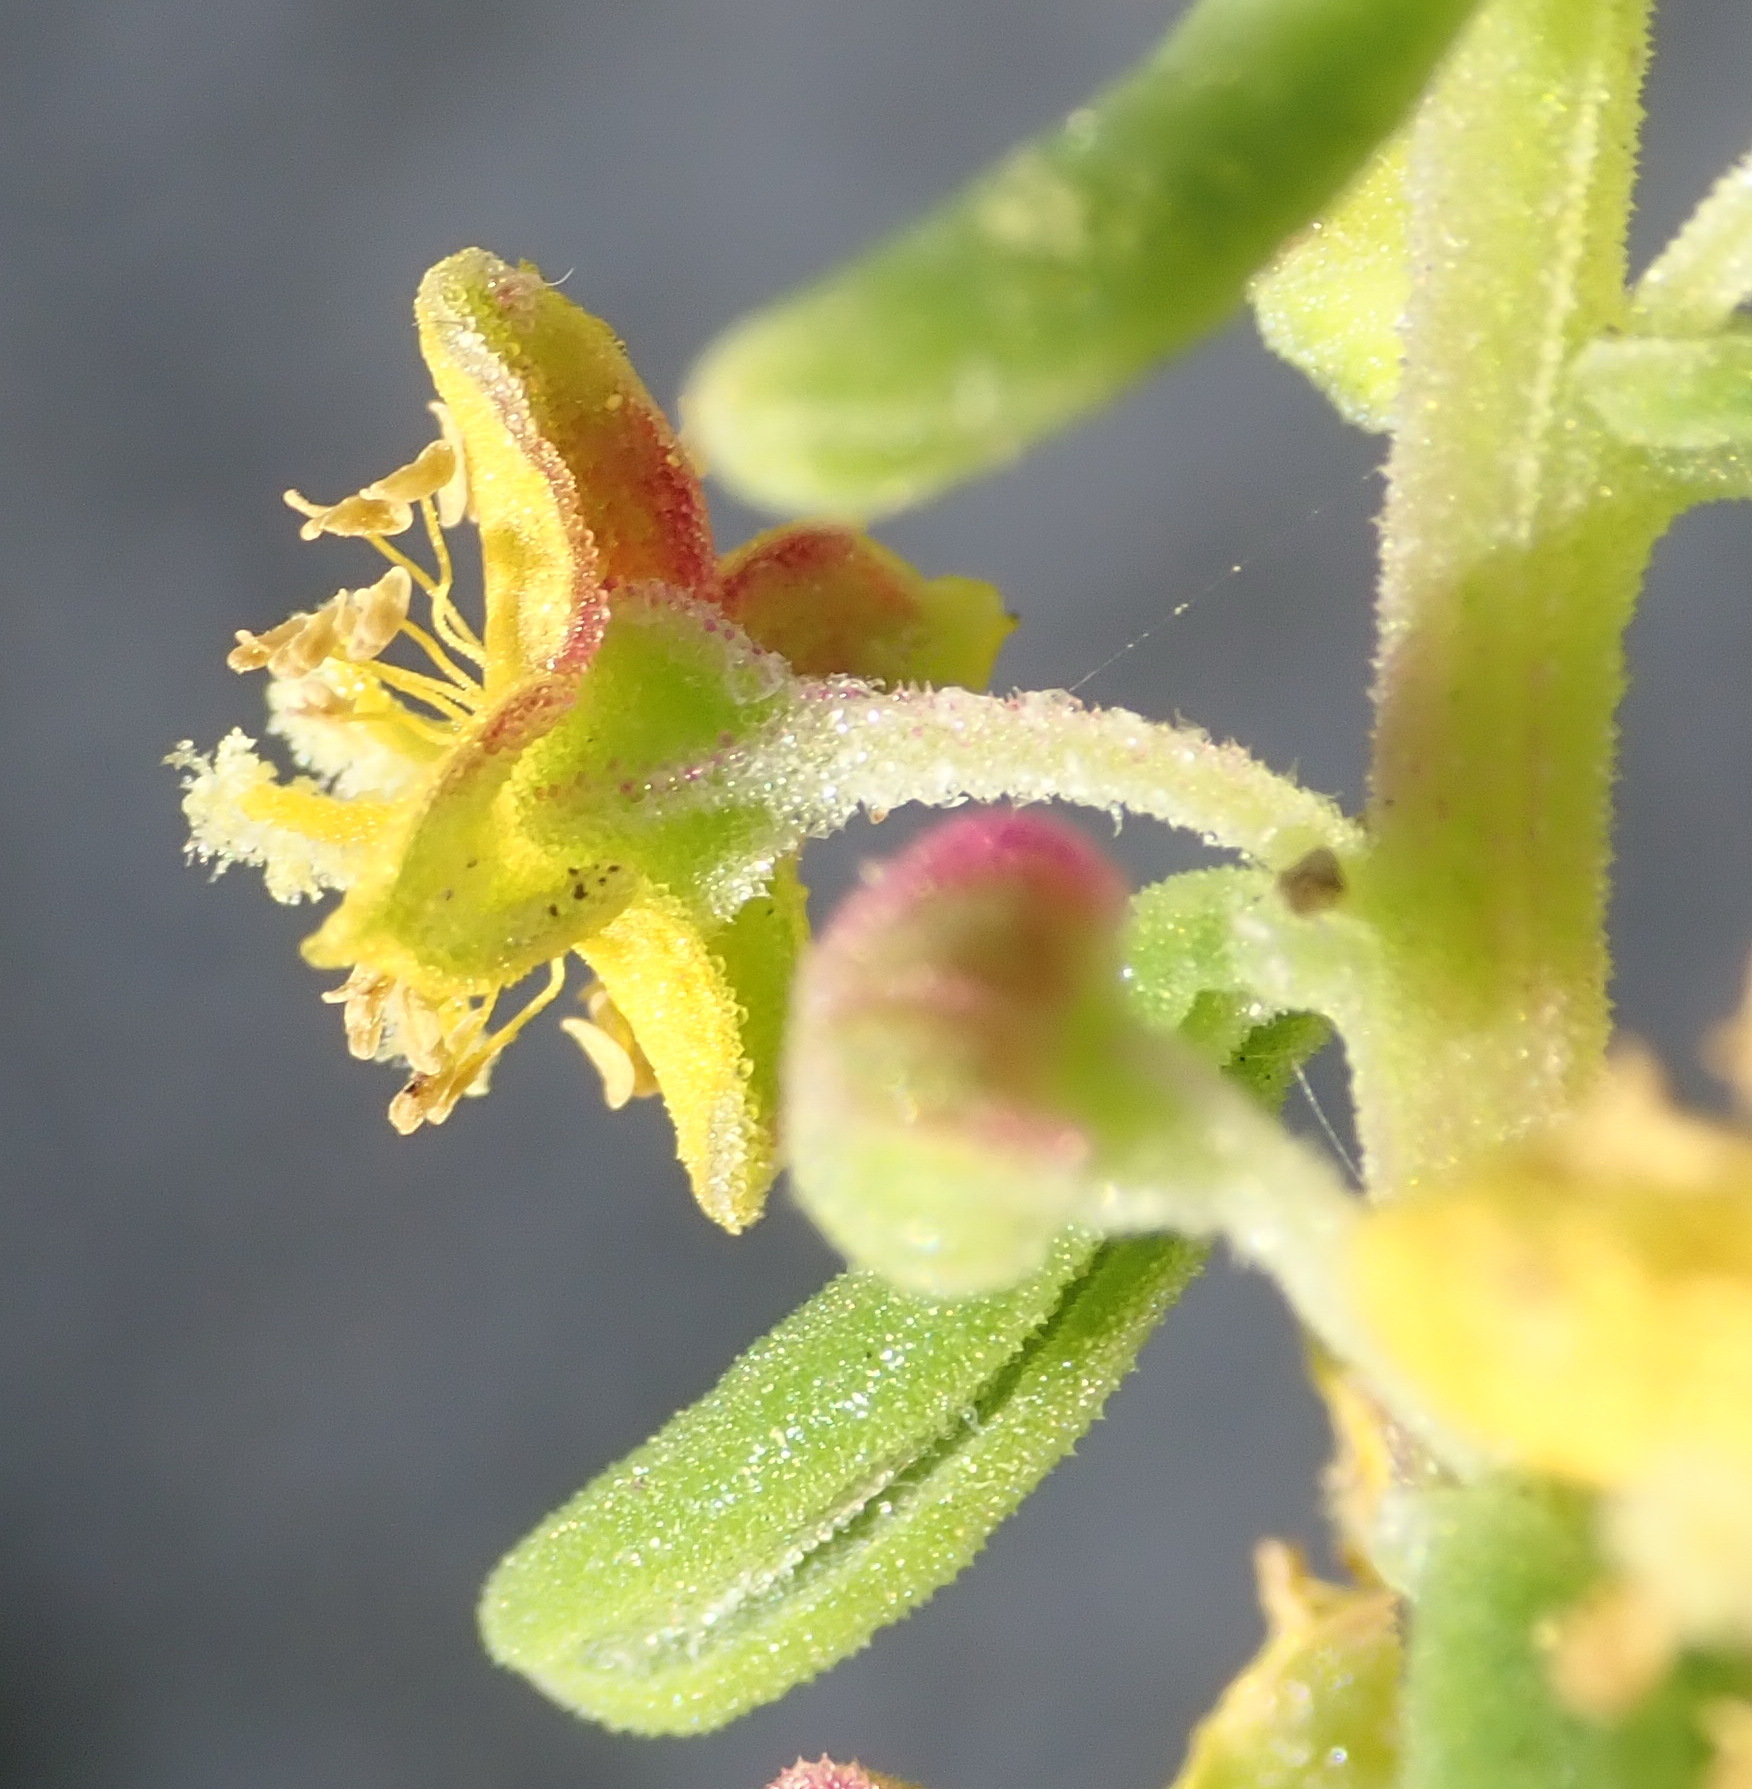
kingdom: Plantae
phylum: Tracheophyta
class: Magnoliopsida
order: Caryophyllales
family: Aizoaceae
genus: Tetragonia
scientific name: Tetragonia fruticosa
